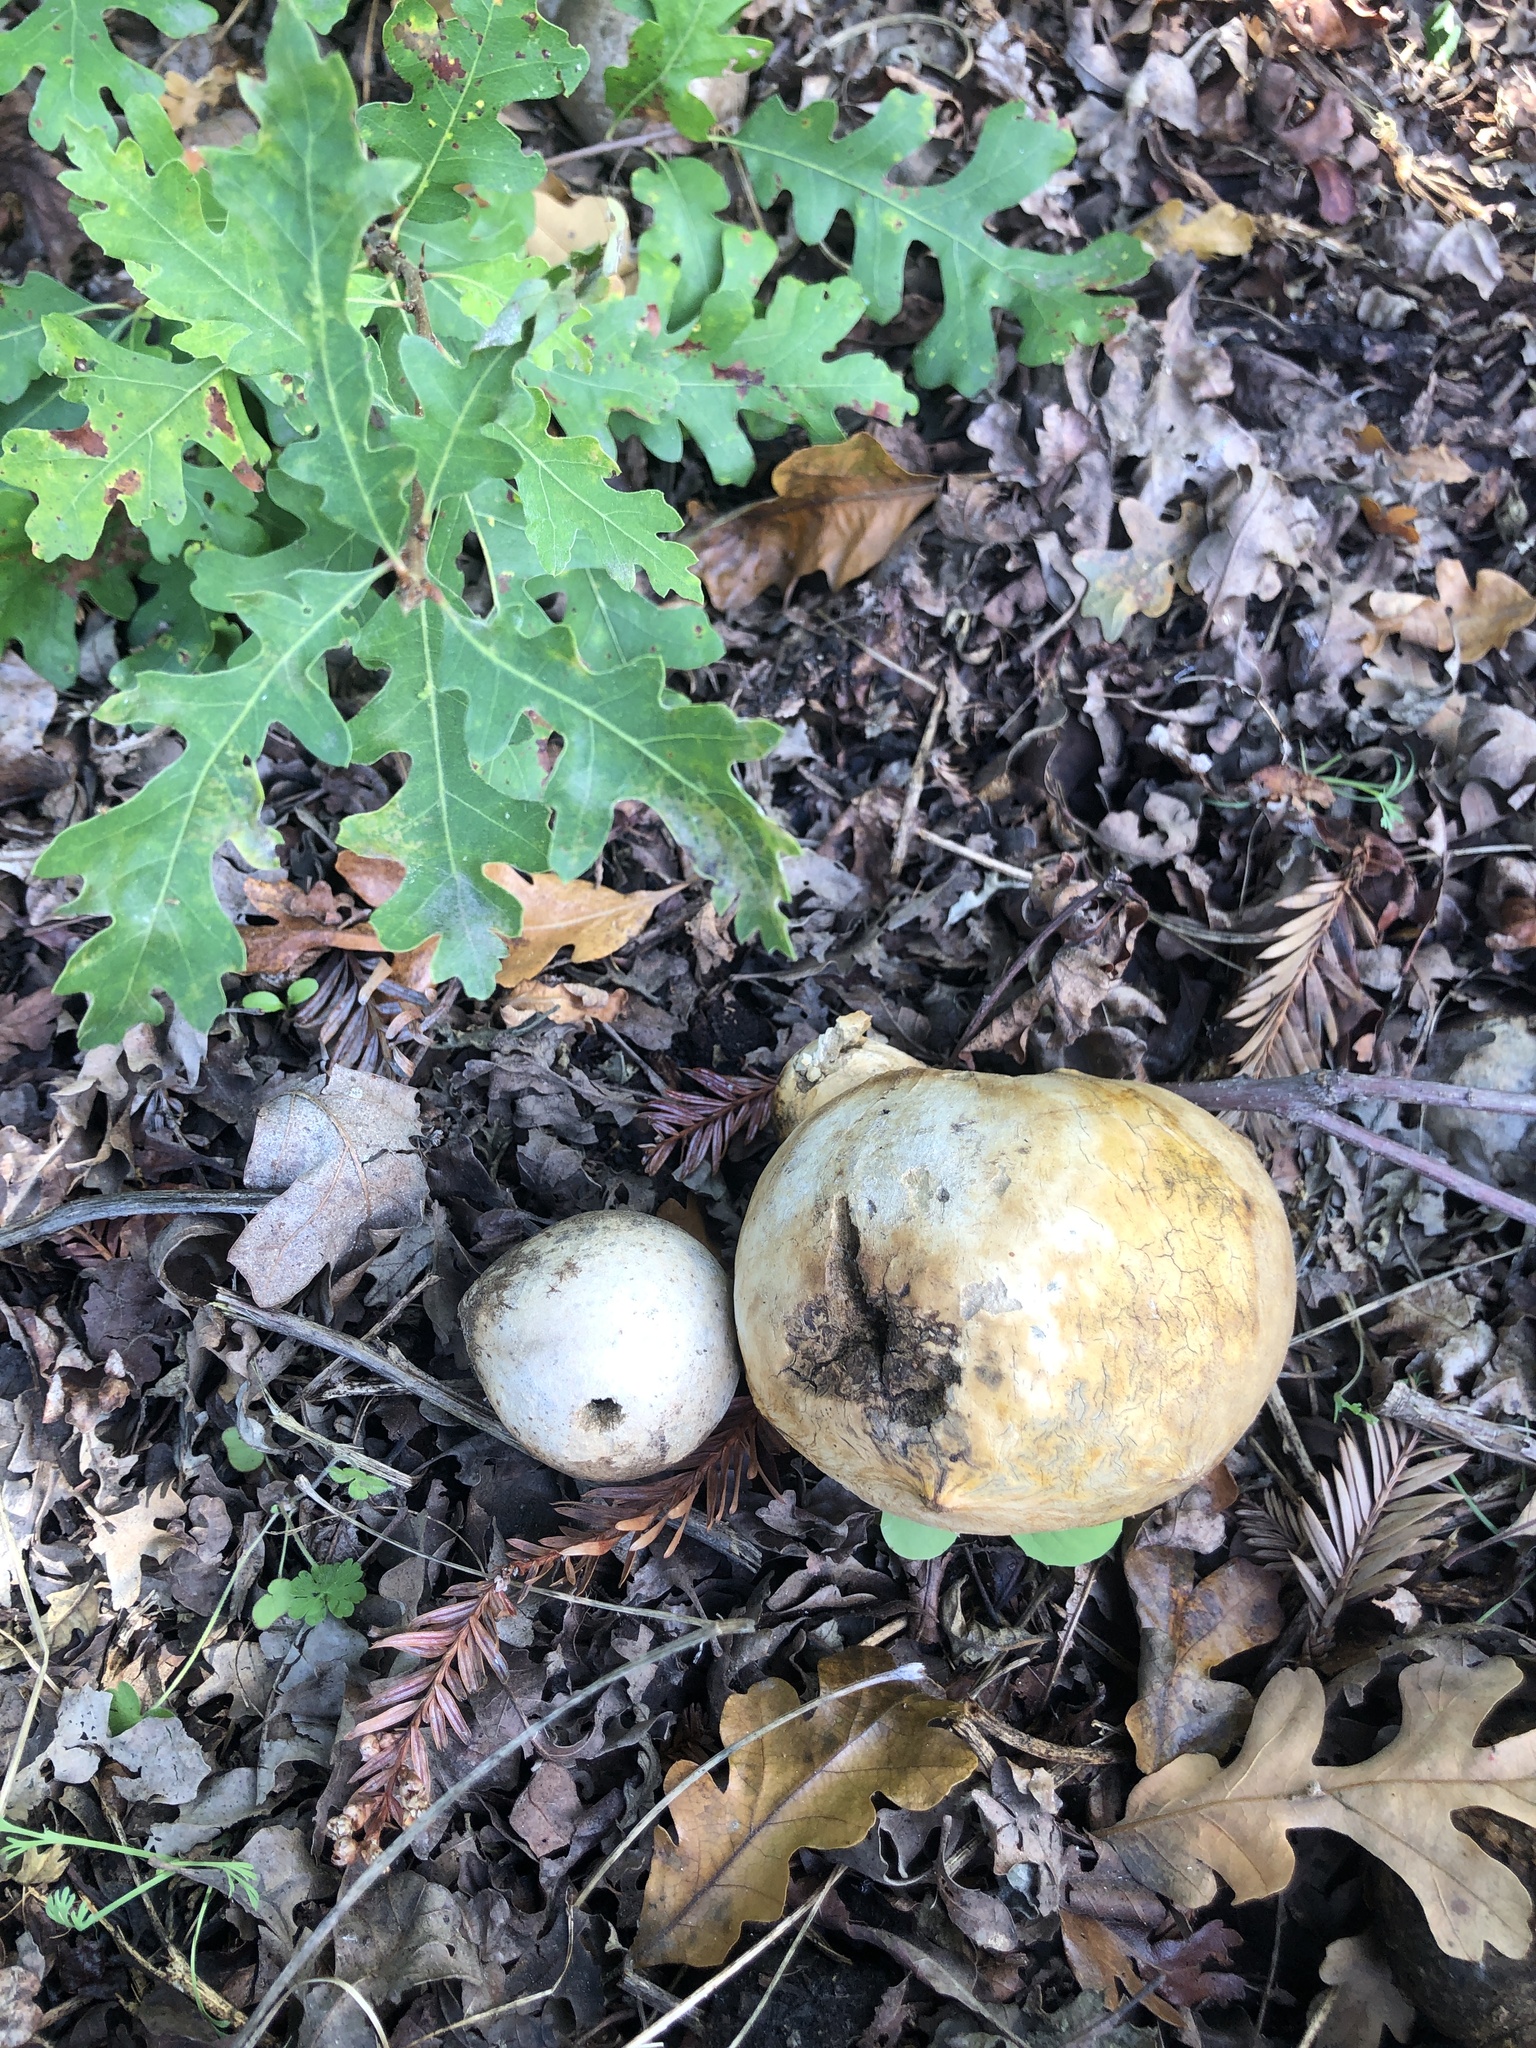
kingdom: Animalia
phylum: Arthropoda
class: Insecta
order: Hymenoptera
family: Cynipidae
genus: Andricus
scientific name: Andricus quercuscalifornicus
